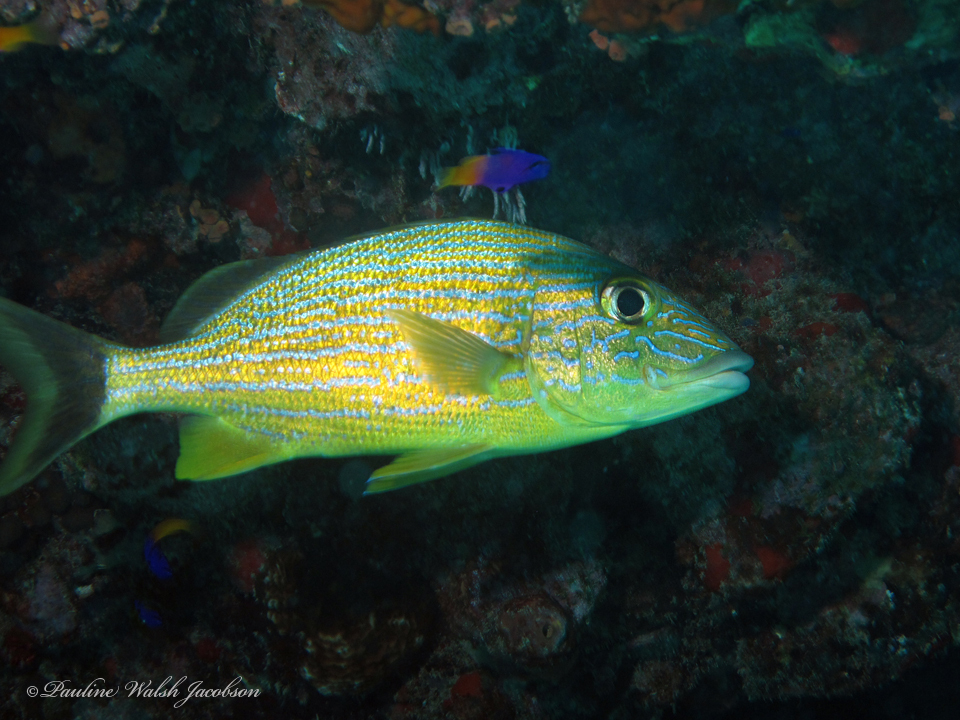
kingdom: Animalia
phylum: Chordata
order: Perciformes
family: Haemulidae
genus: Haemulon
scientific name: Haemulon sciurus
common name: Bluestriped grunt
